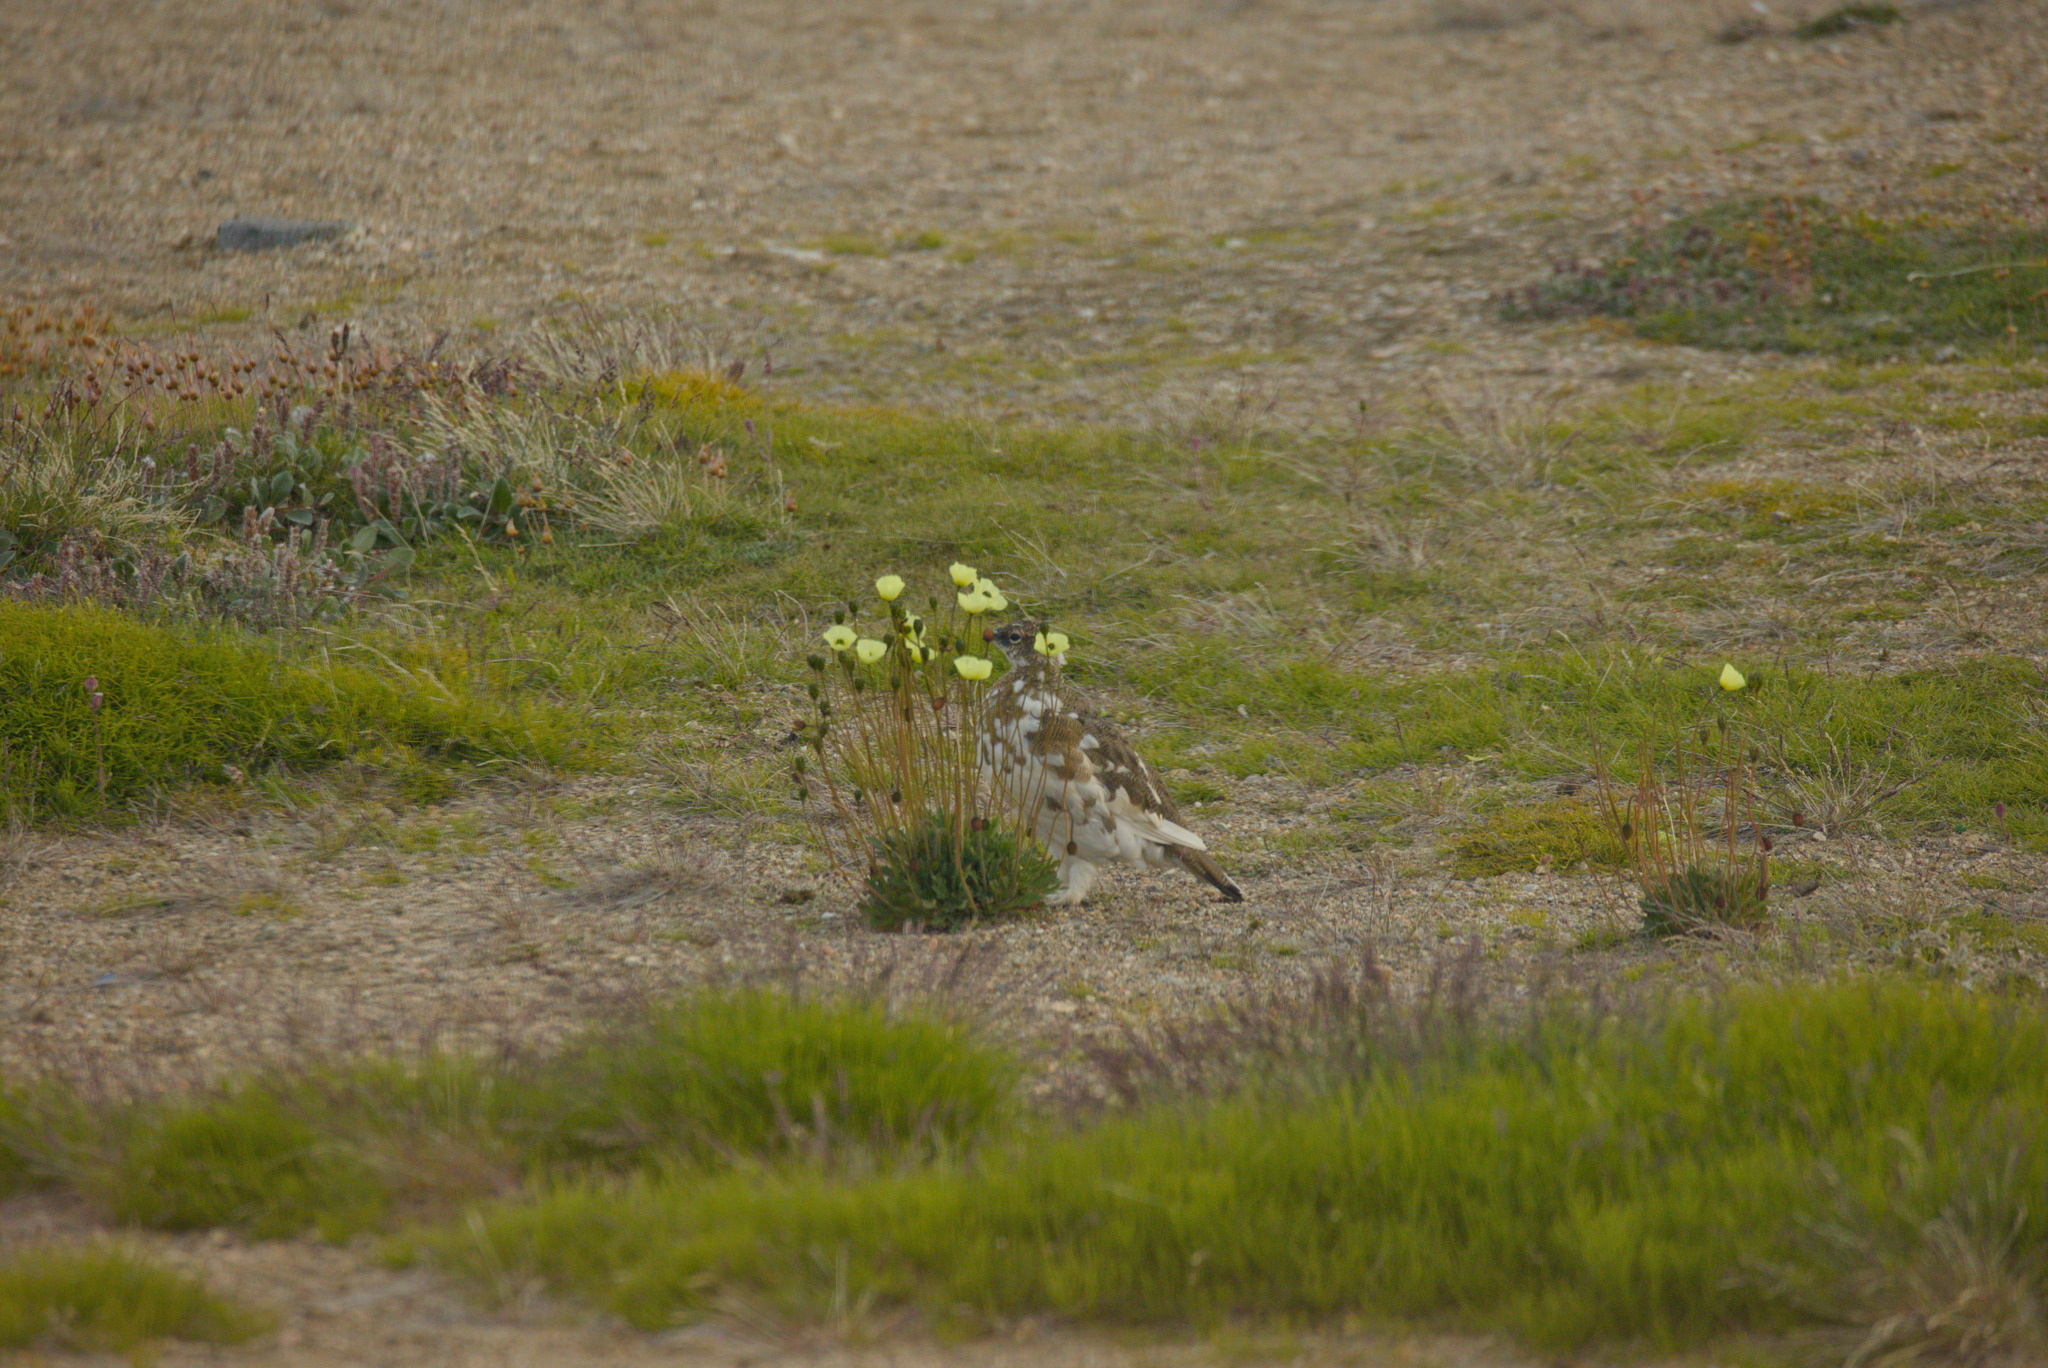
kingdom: Animalia
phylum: Chordata
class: Aves
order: Galliformes
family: Phasianidae
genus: Lagopus
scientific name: Lagopus muta
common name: Rock ptarmigan
